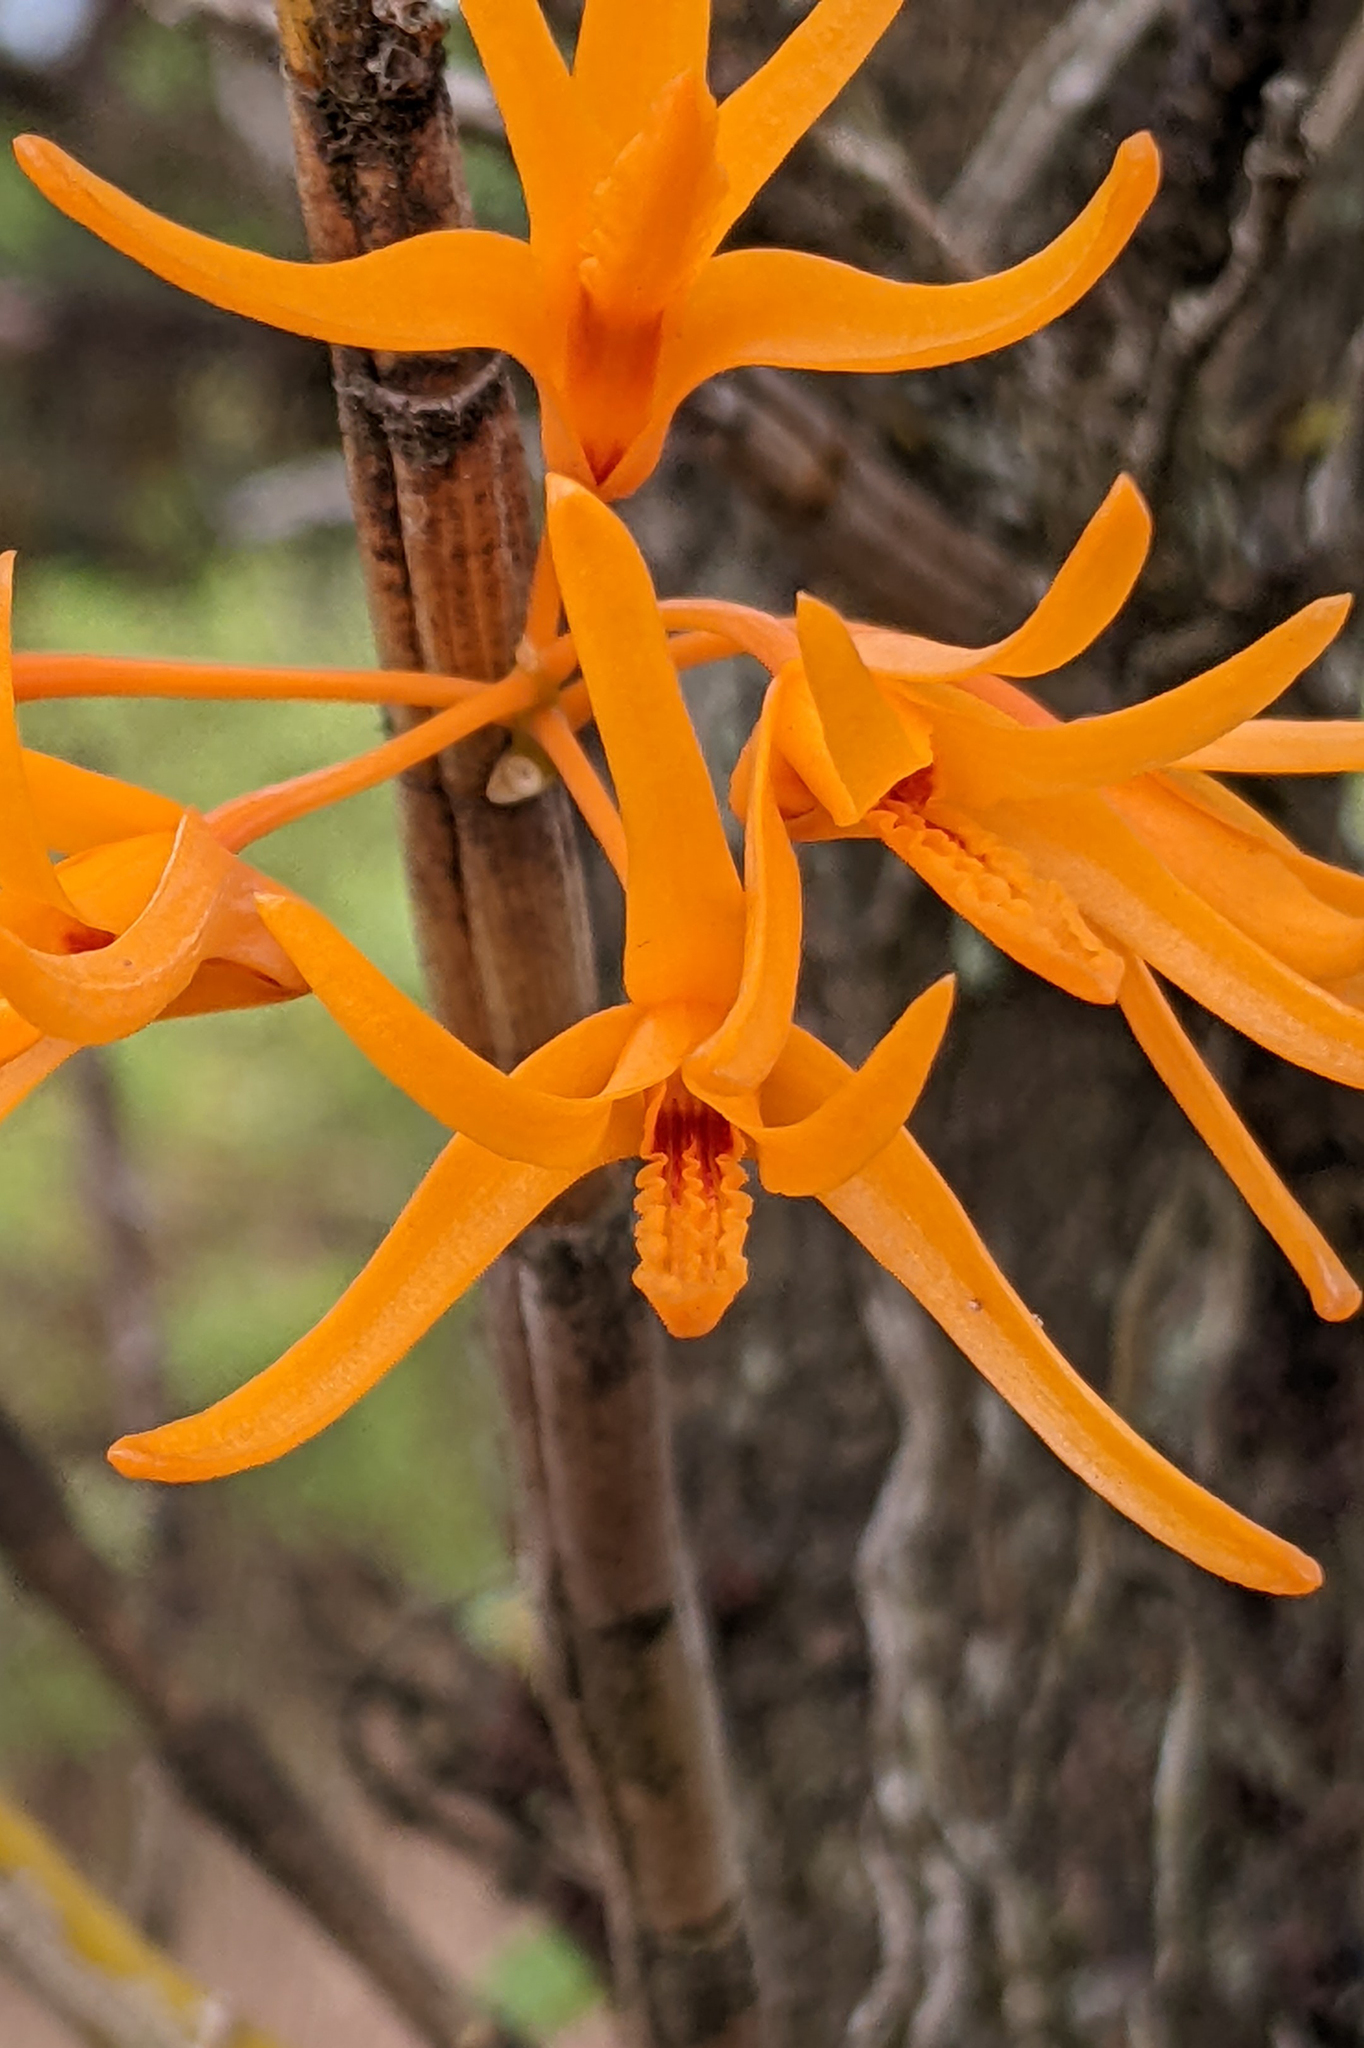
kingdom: Plantae
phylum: Tracheophyta
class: Liliopsida
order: Asparagales
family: Orchidaceae
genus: Dendrobium
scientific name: Dendrobium jerdonianum
